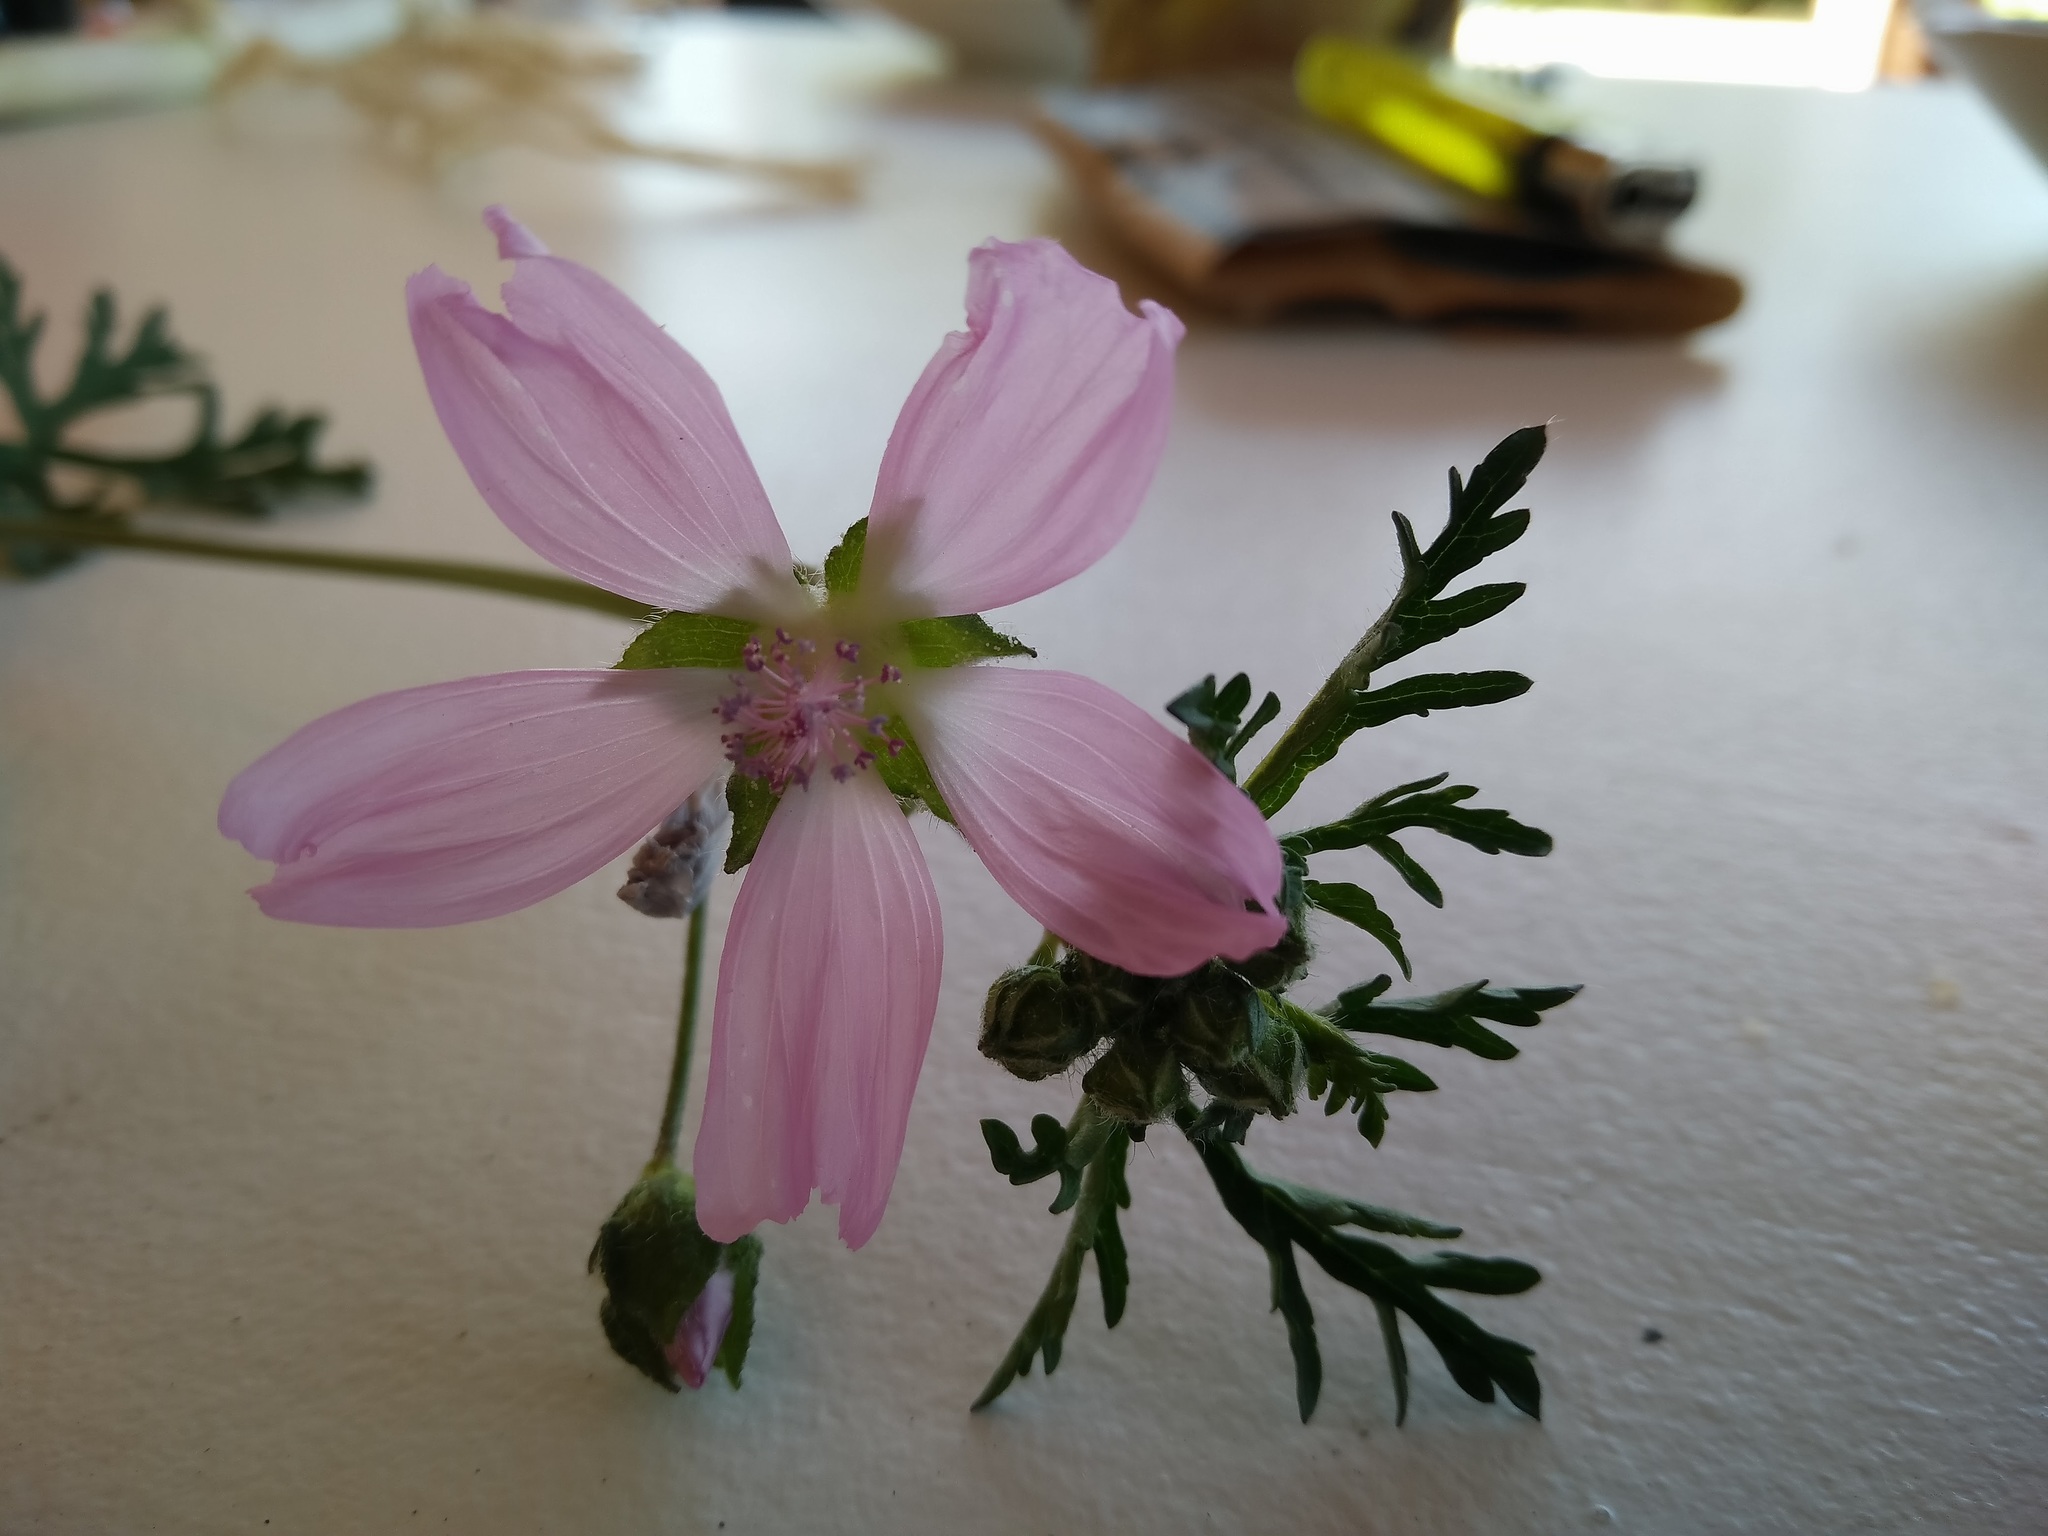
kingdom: Plantae
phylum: Tracheophyta
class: Magnoliopsida
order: Malvales
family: Malvaceae
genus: Malva
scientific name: Malva moschata
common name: Musk mallow
